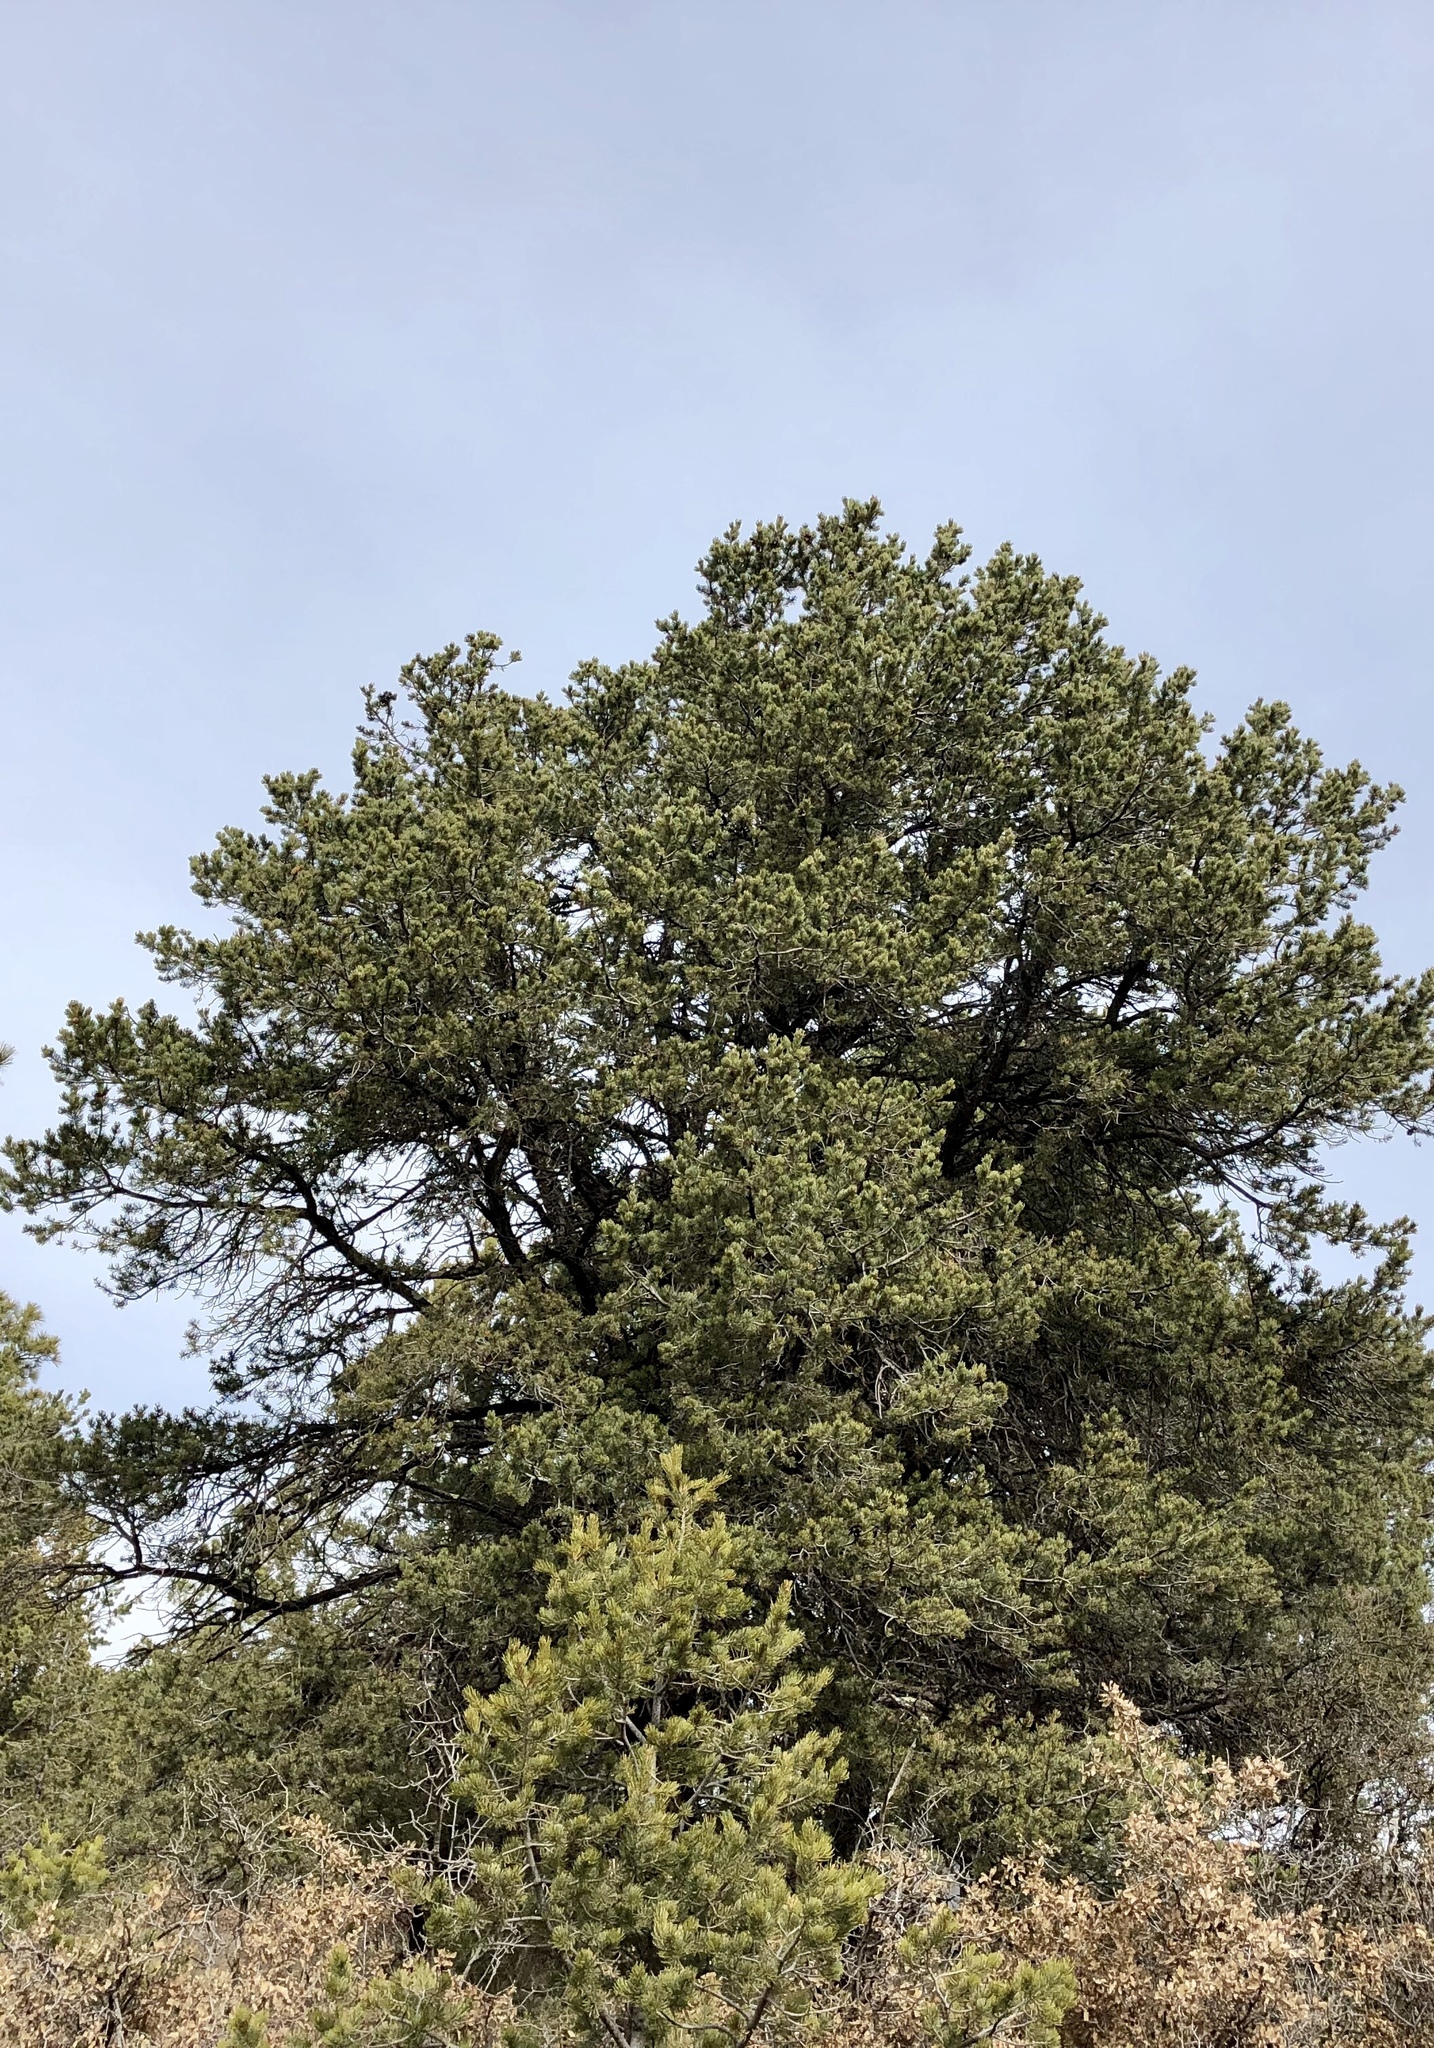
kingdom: Plantae
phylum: Tracheophyta
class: Pinopsida
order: Pinales
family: Pinaceae
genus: Pinus
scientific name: Pinus edulis
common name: Colorado pinyon
